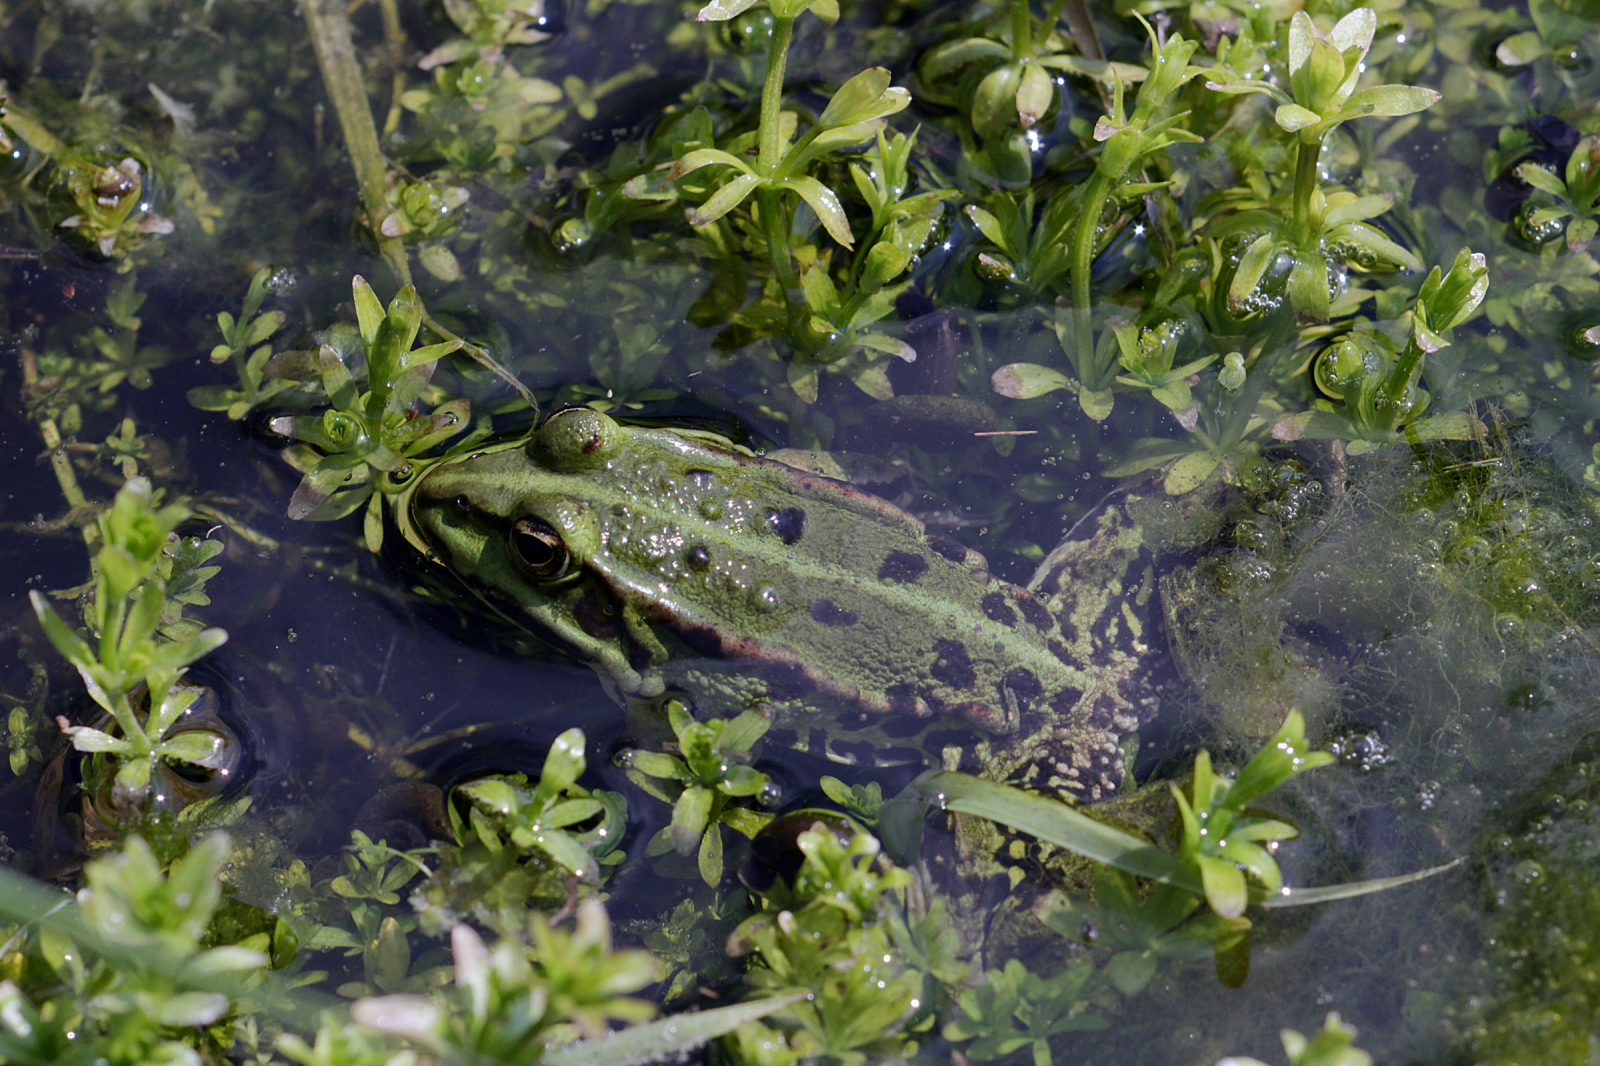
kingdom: Animalia
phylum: Chordata
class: Amphibia
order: Anura
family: Ranidae
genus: Pelophylax
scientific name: Pelophylax
